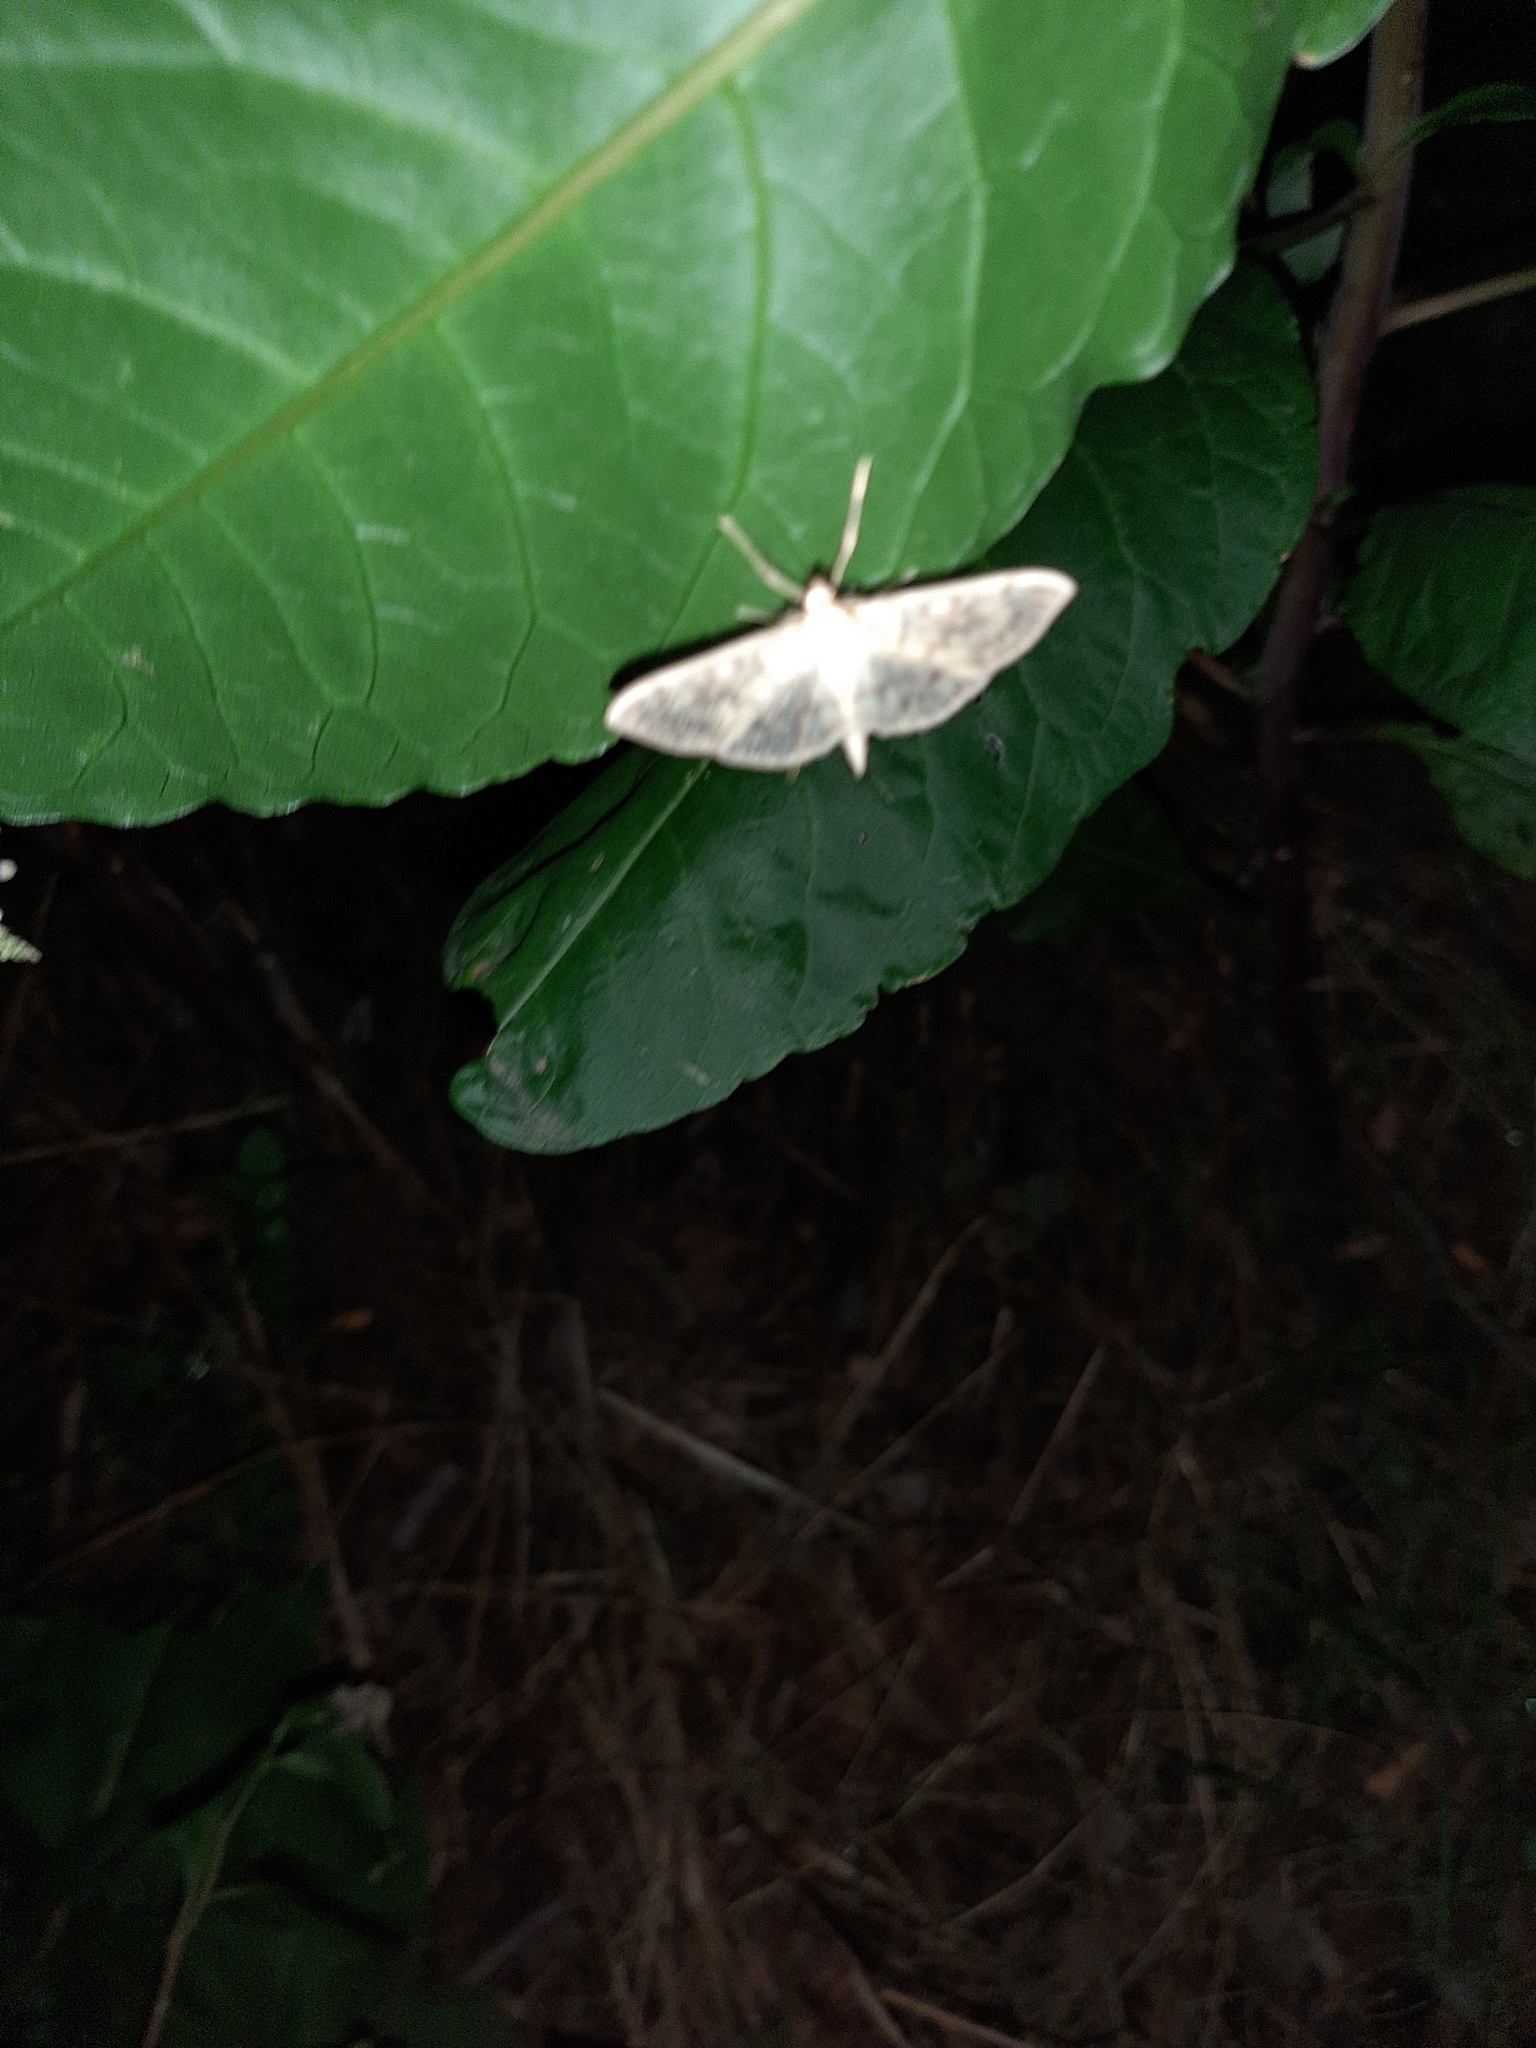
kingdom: Animalia
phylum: Arthropoda
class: Insecta
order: Lepidoptera
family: Crambidae
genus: Patania
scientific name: Patania ruralis
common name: Mother of pearl
